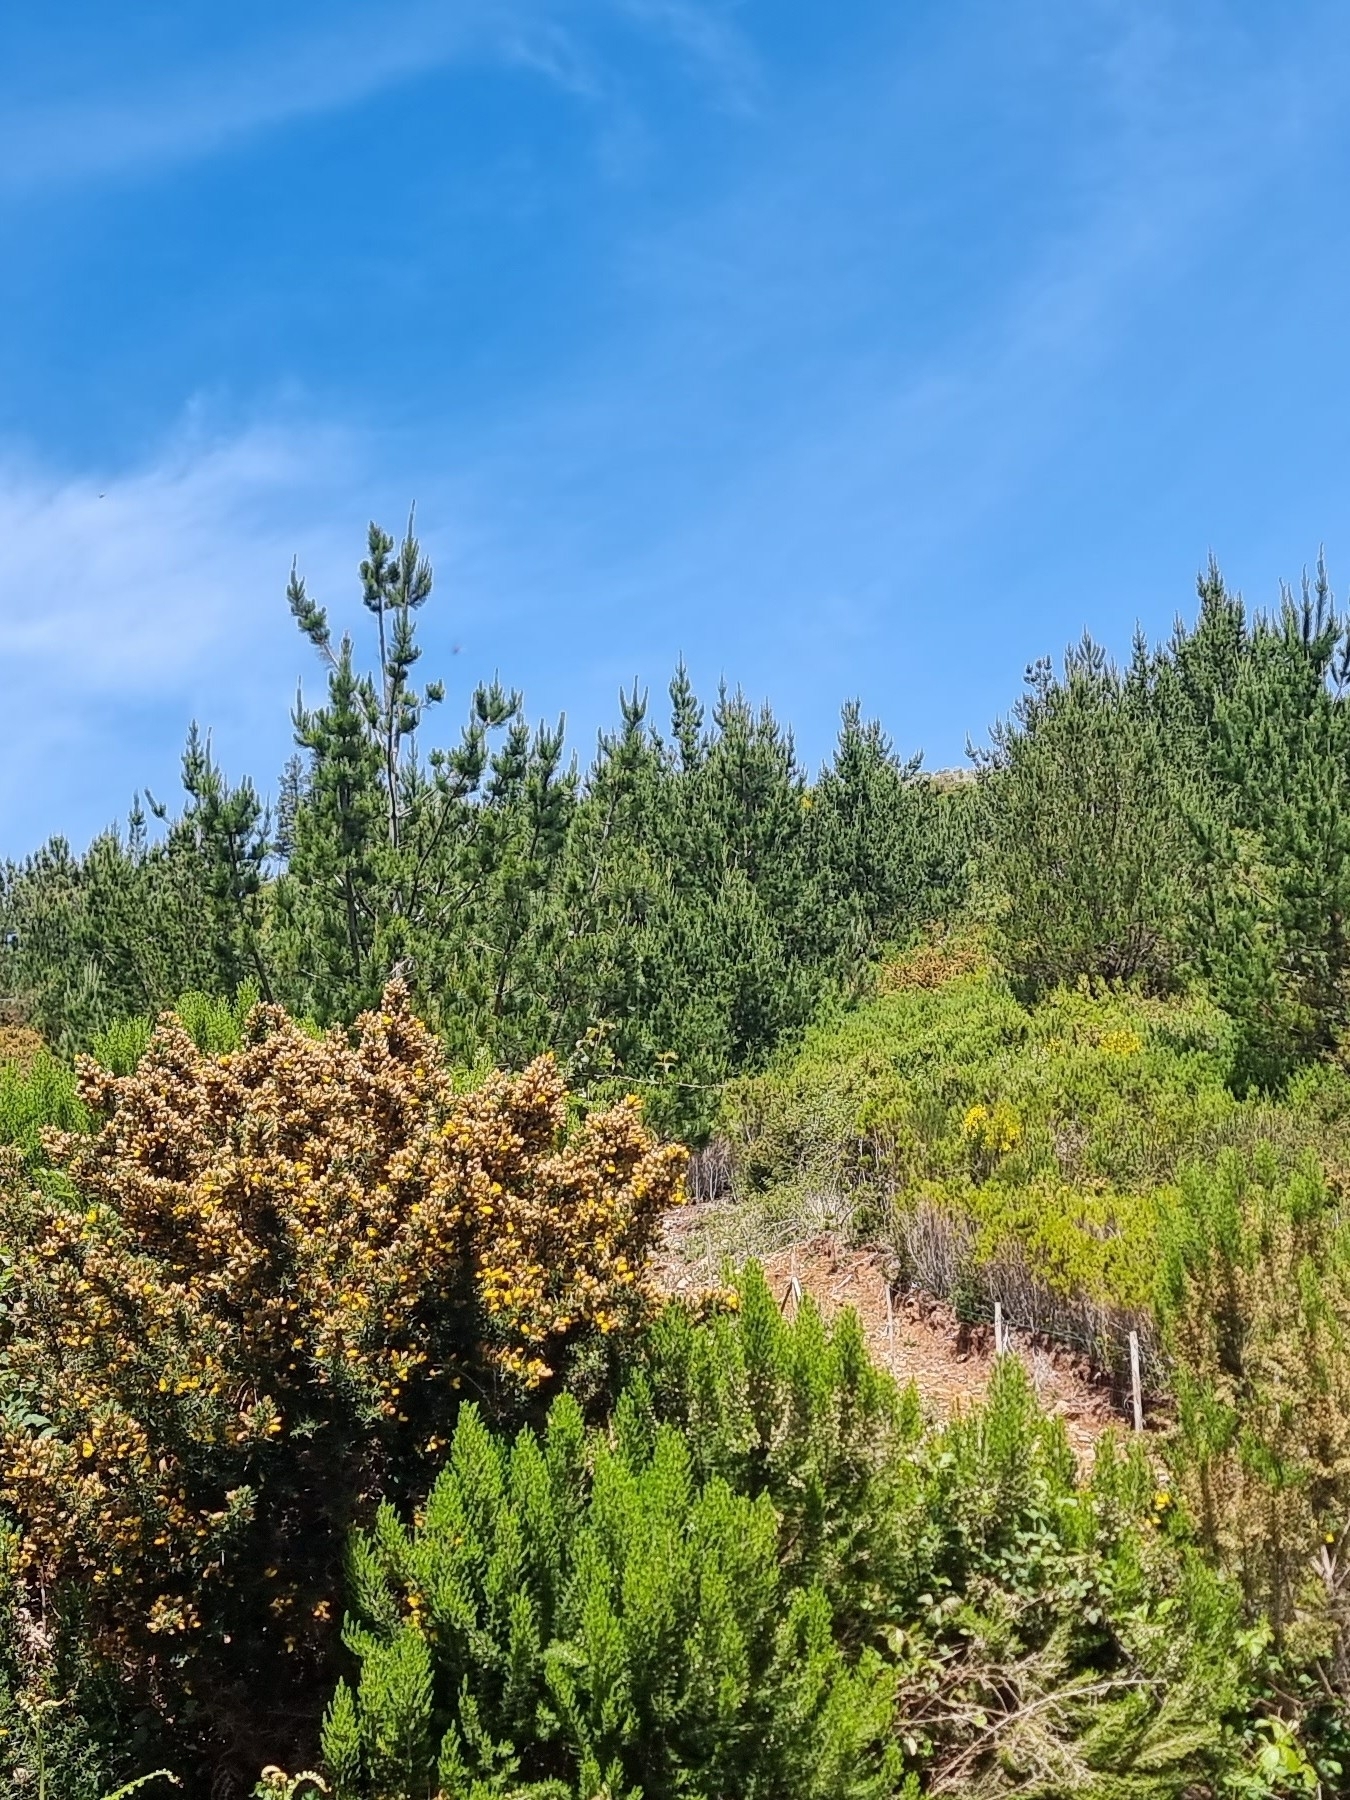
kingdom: Plantae
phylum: Tracheophyta
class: Pinopsida
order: Pinales
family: Pinaceae
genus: Pinus
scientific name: Pinus pinaster
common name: Maritime pine
